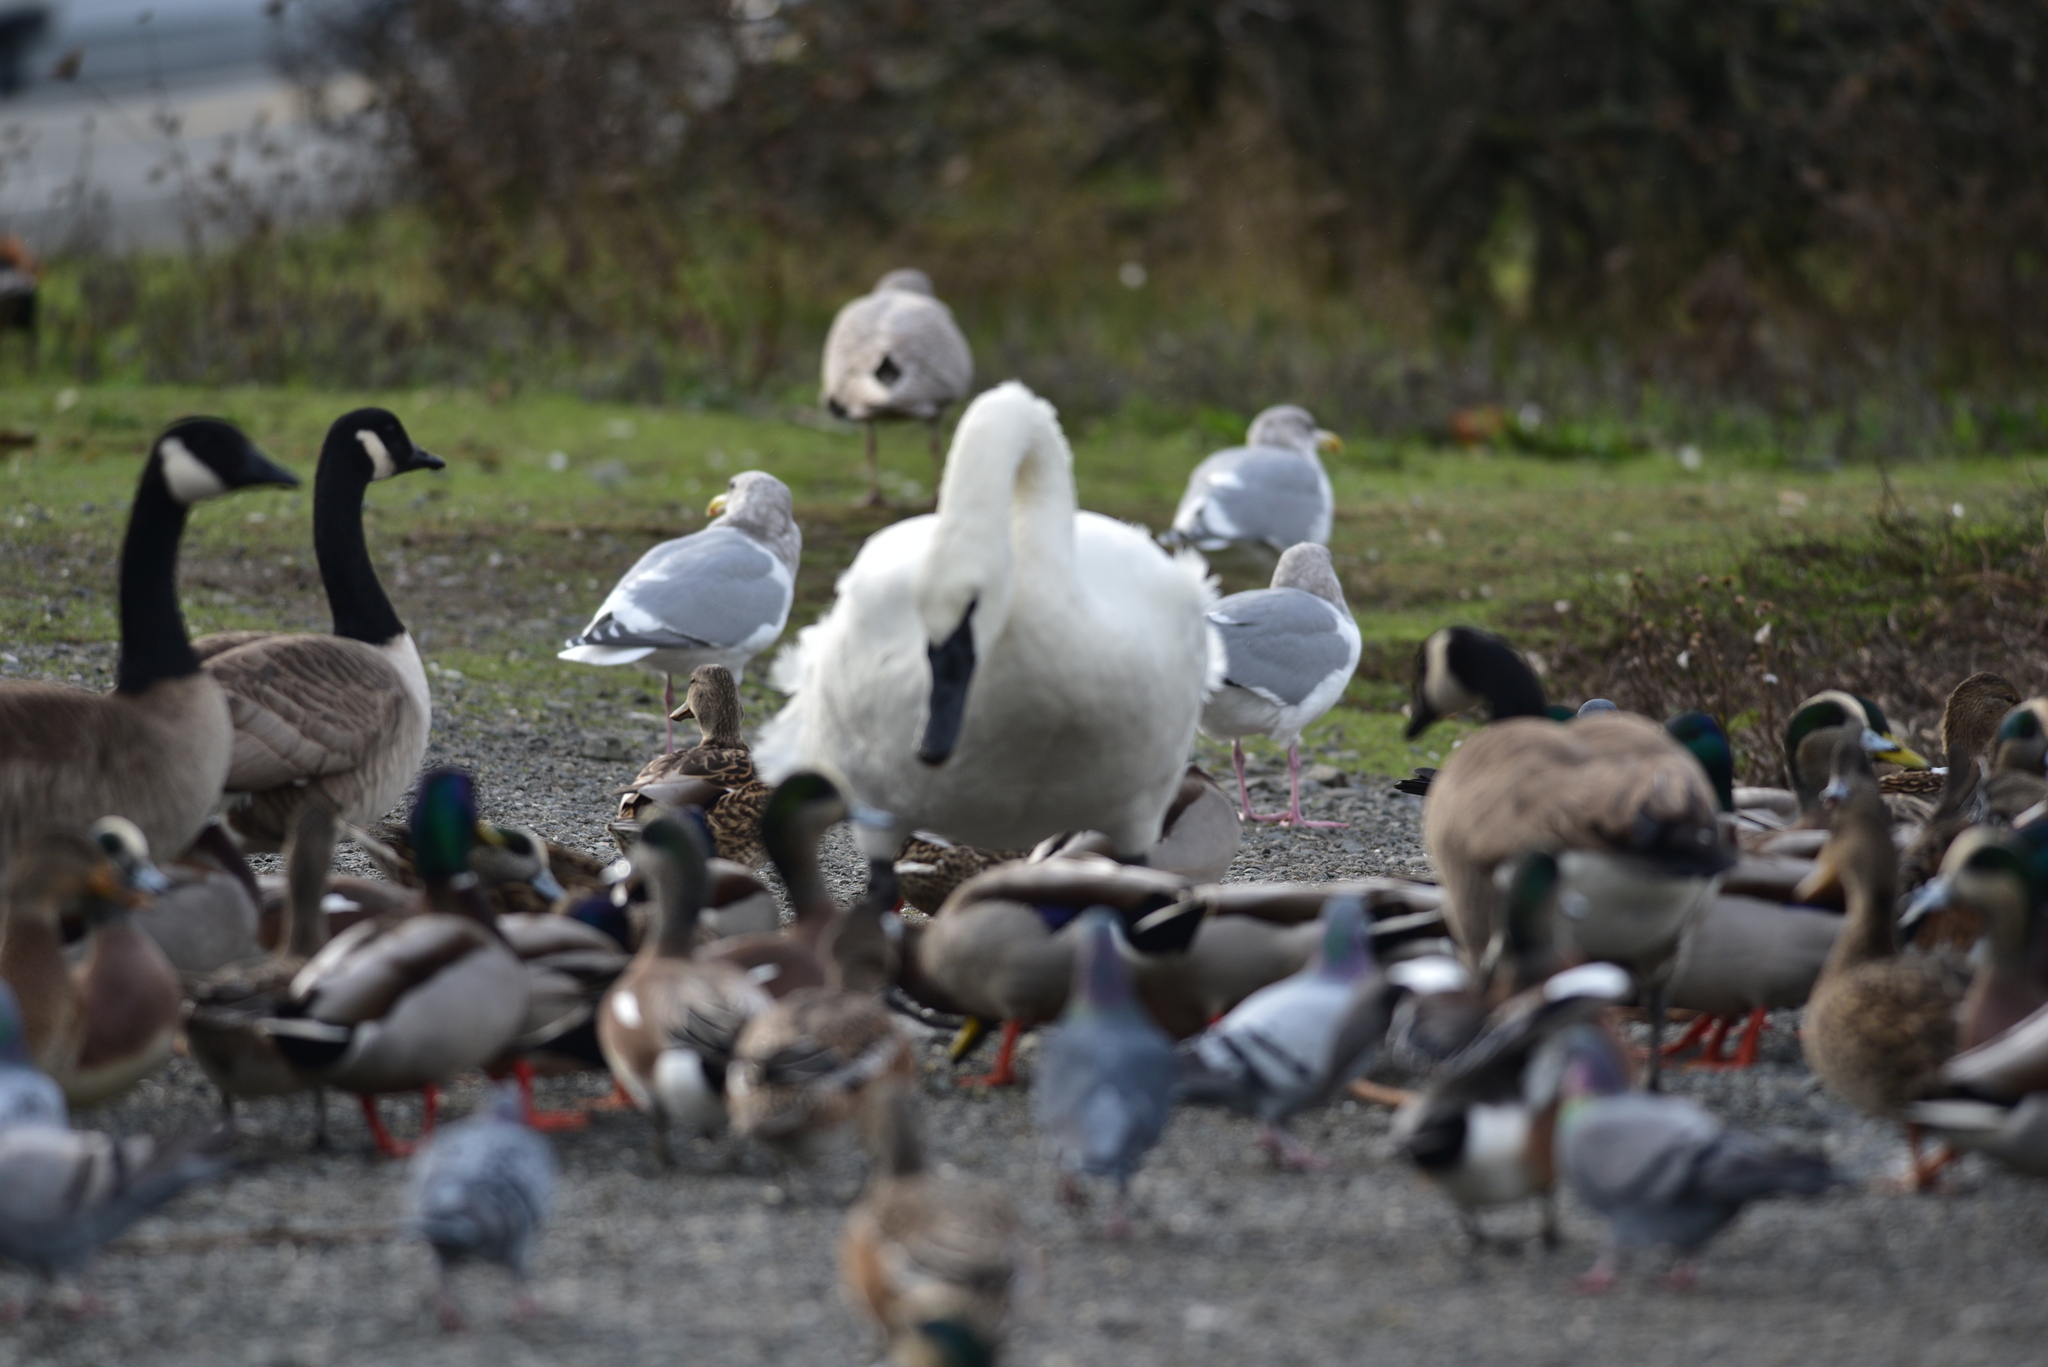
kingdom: Animalia
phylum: Chordata
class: Aves
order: Anseriformes
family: Anatidae
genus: Cygnus
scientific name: Cygnus buccinator
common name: Trumpeter swan
